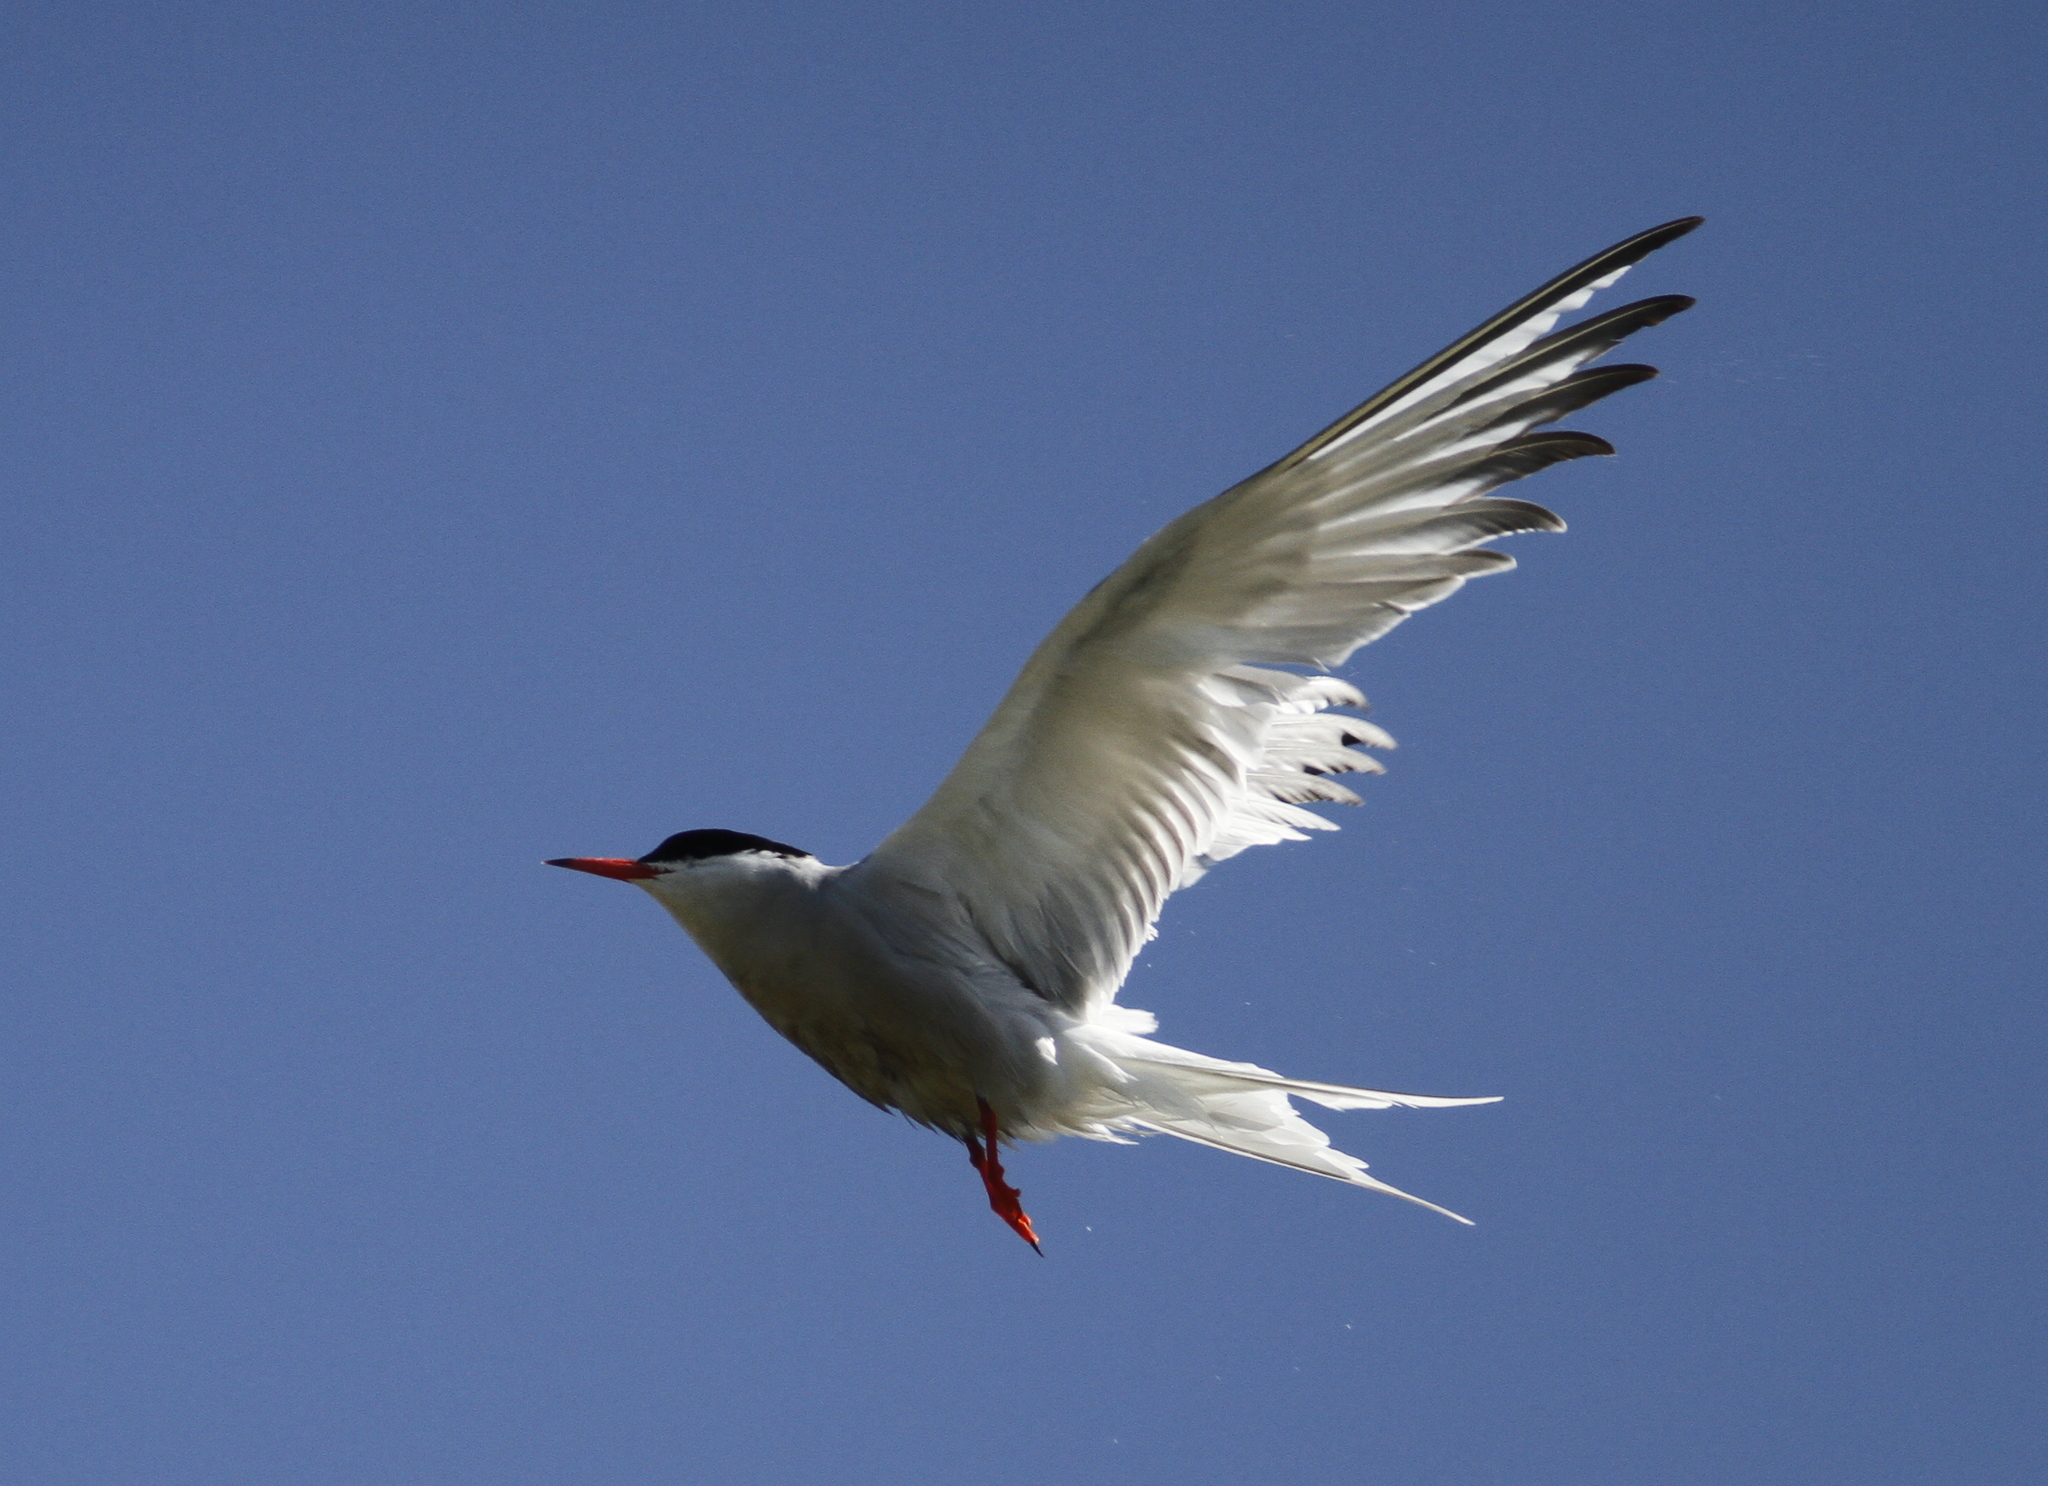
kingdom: Animalia
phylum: Chordata
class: Aves
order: Charadriiformes
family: Laridae
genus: Sterna
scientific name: Sterna hirundo
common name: Common tern
